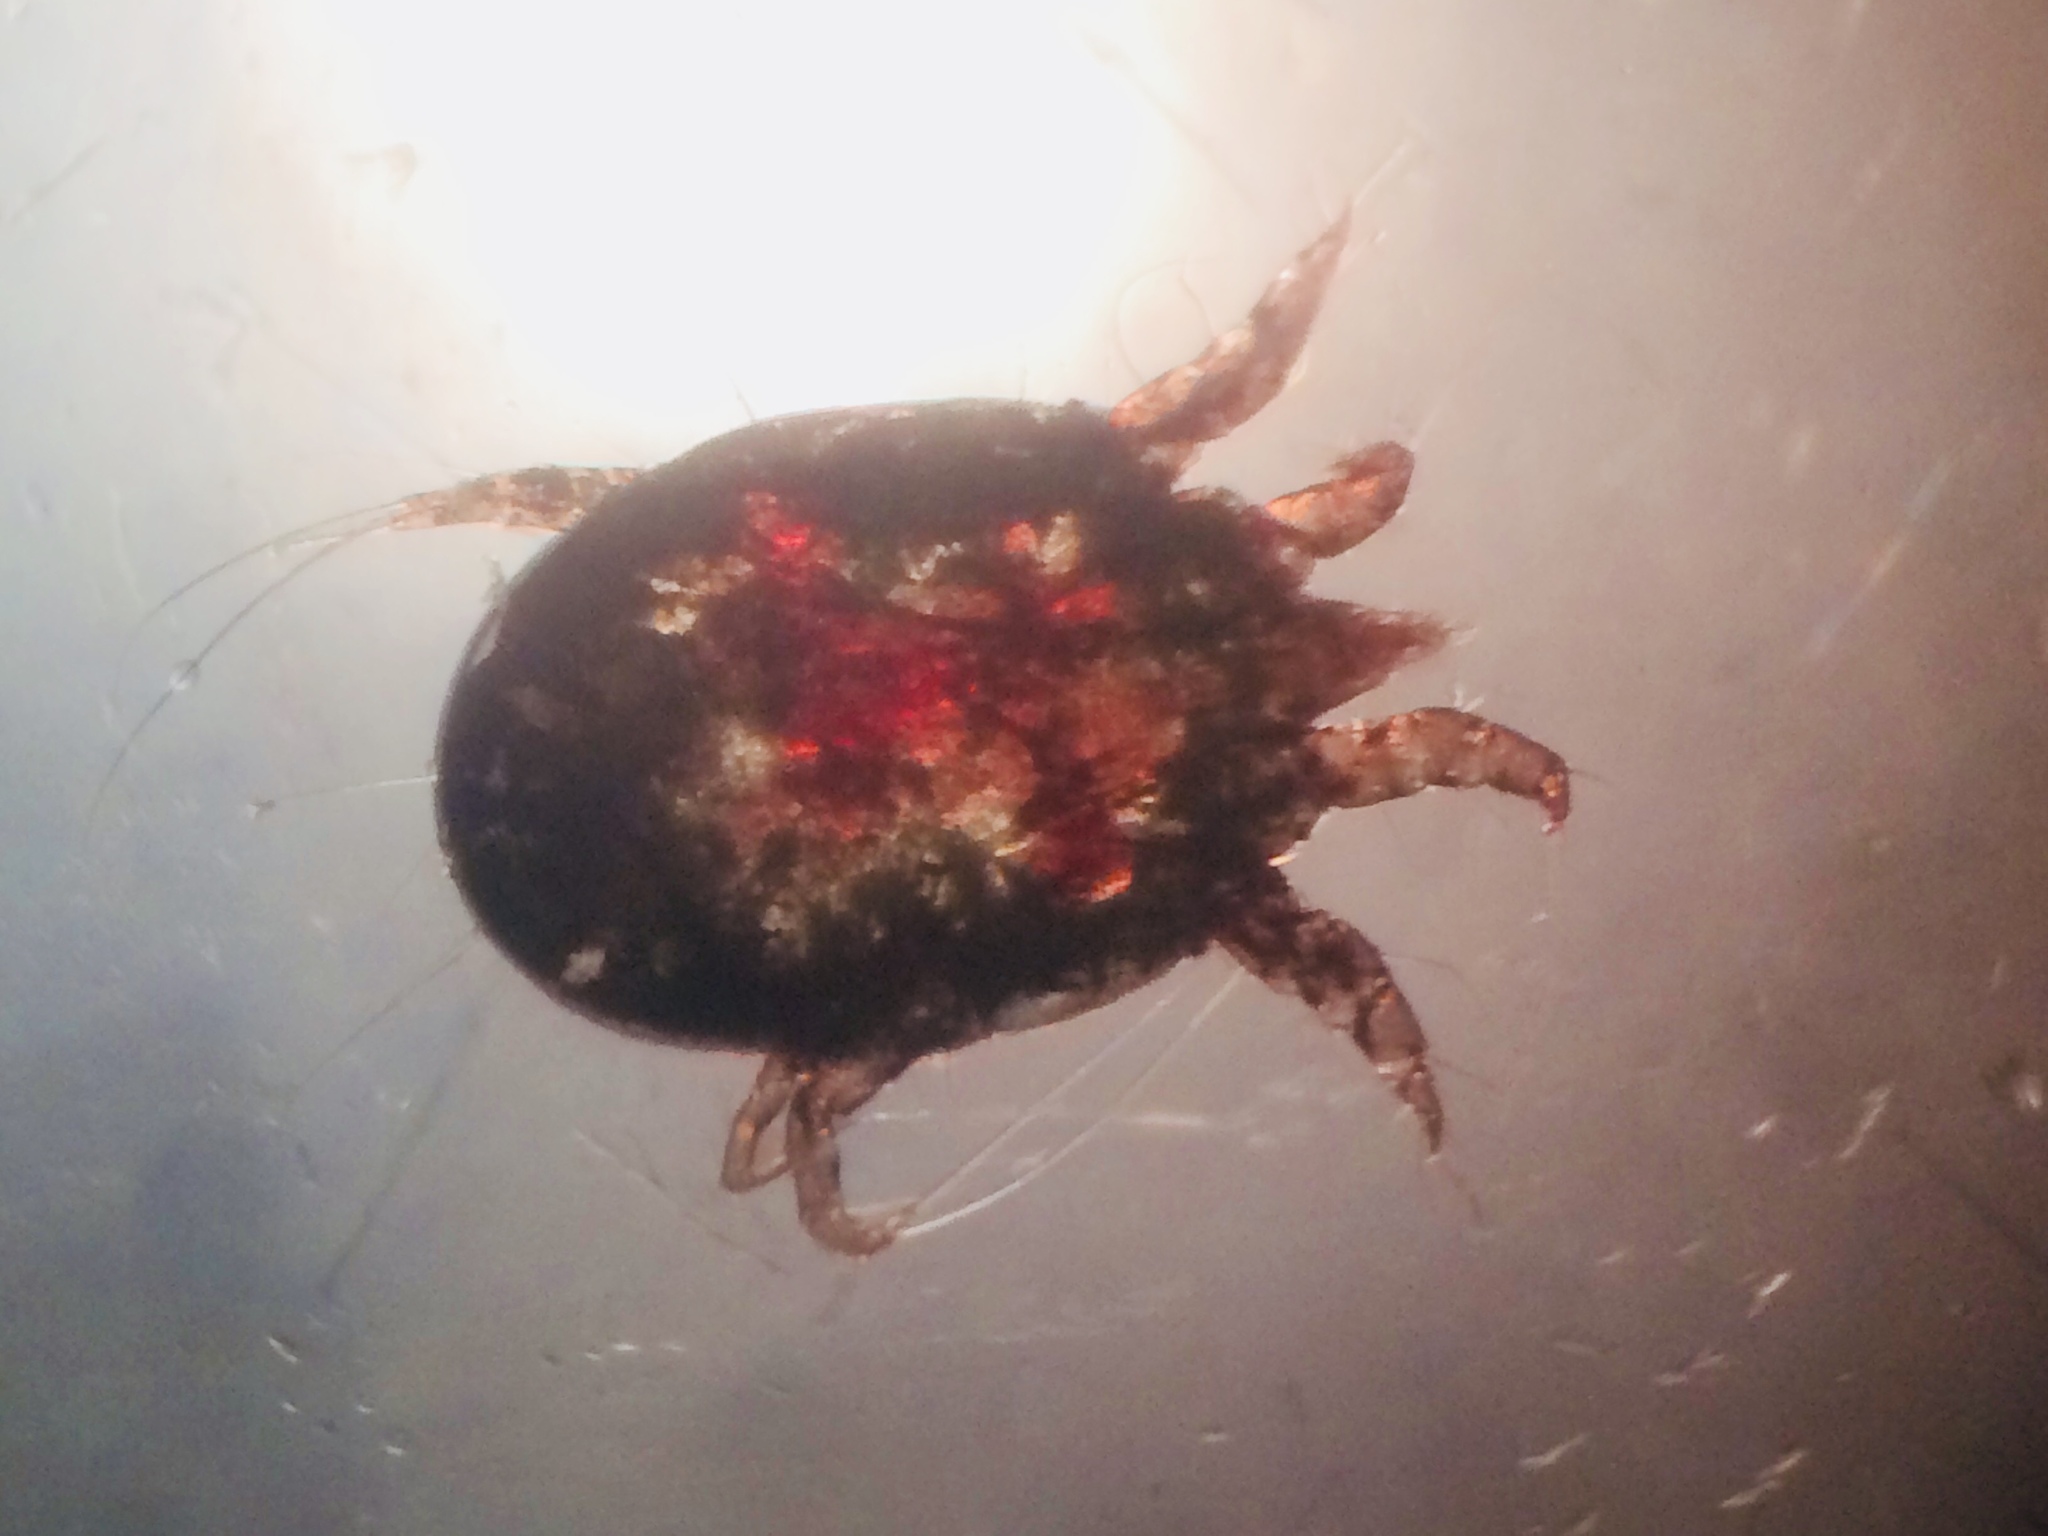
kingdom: Animalia
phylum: Arthropoda
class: Arachnida
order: Sarcoptiformes
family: Psoroptidae
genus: Psoroptes
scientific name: Psoroptes ovis
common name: Mite
